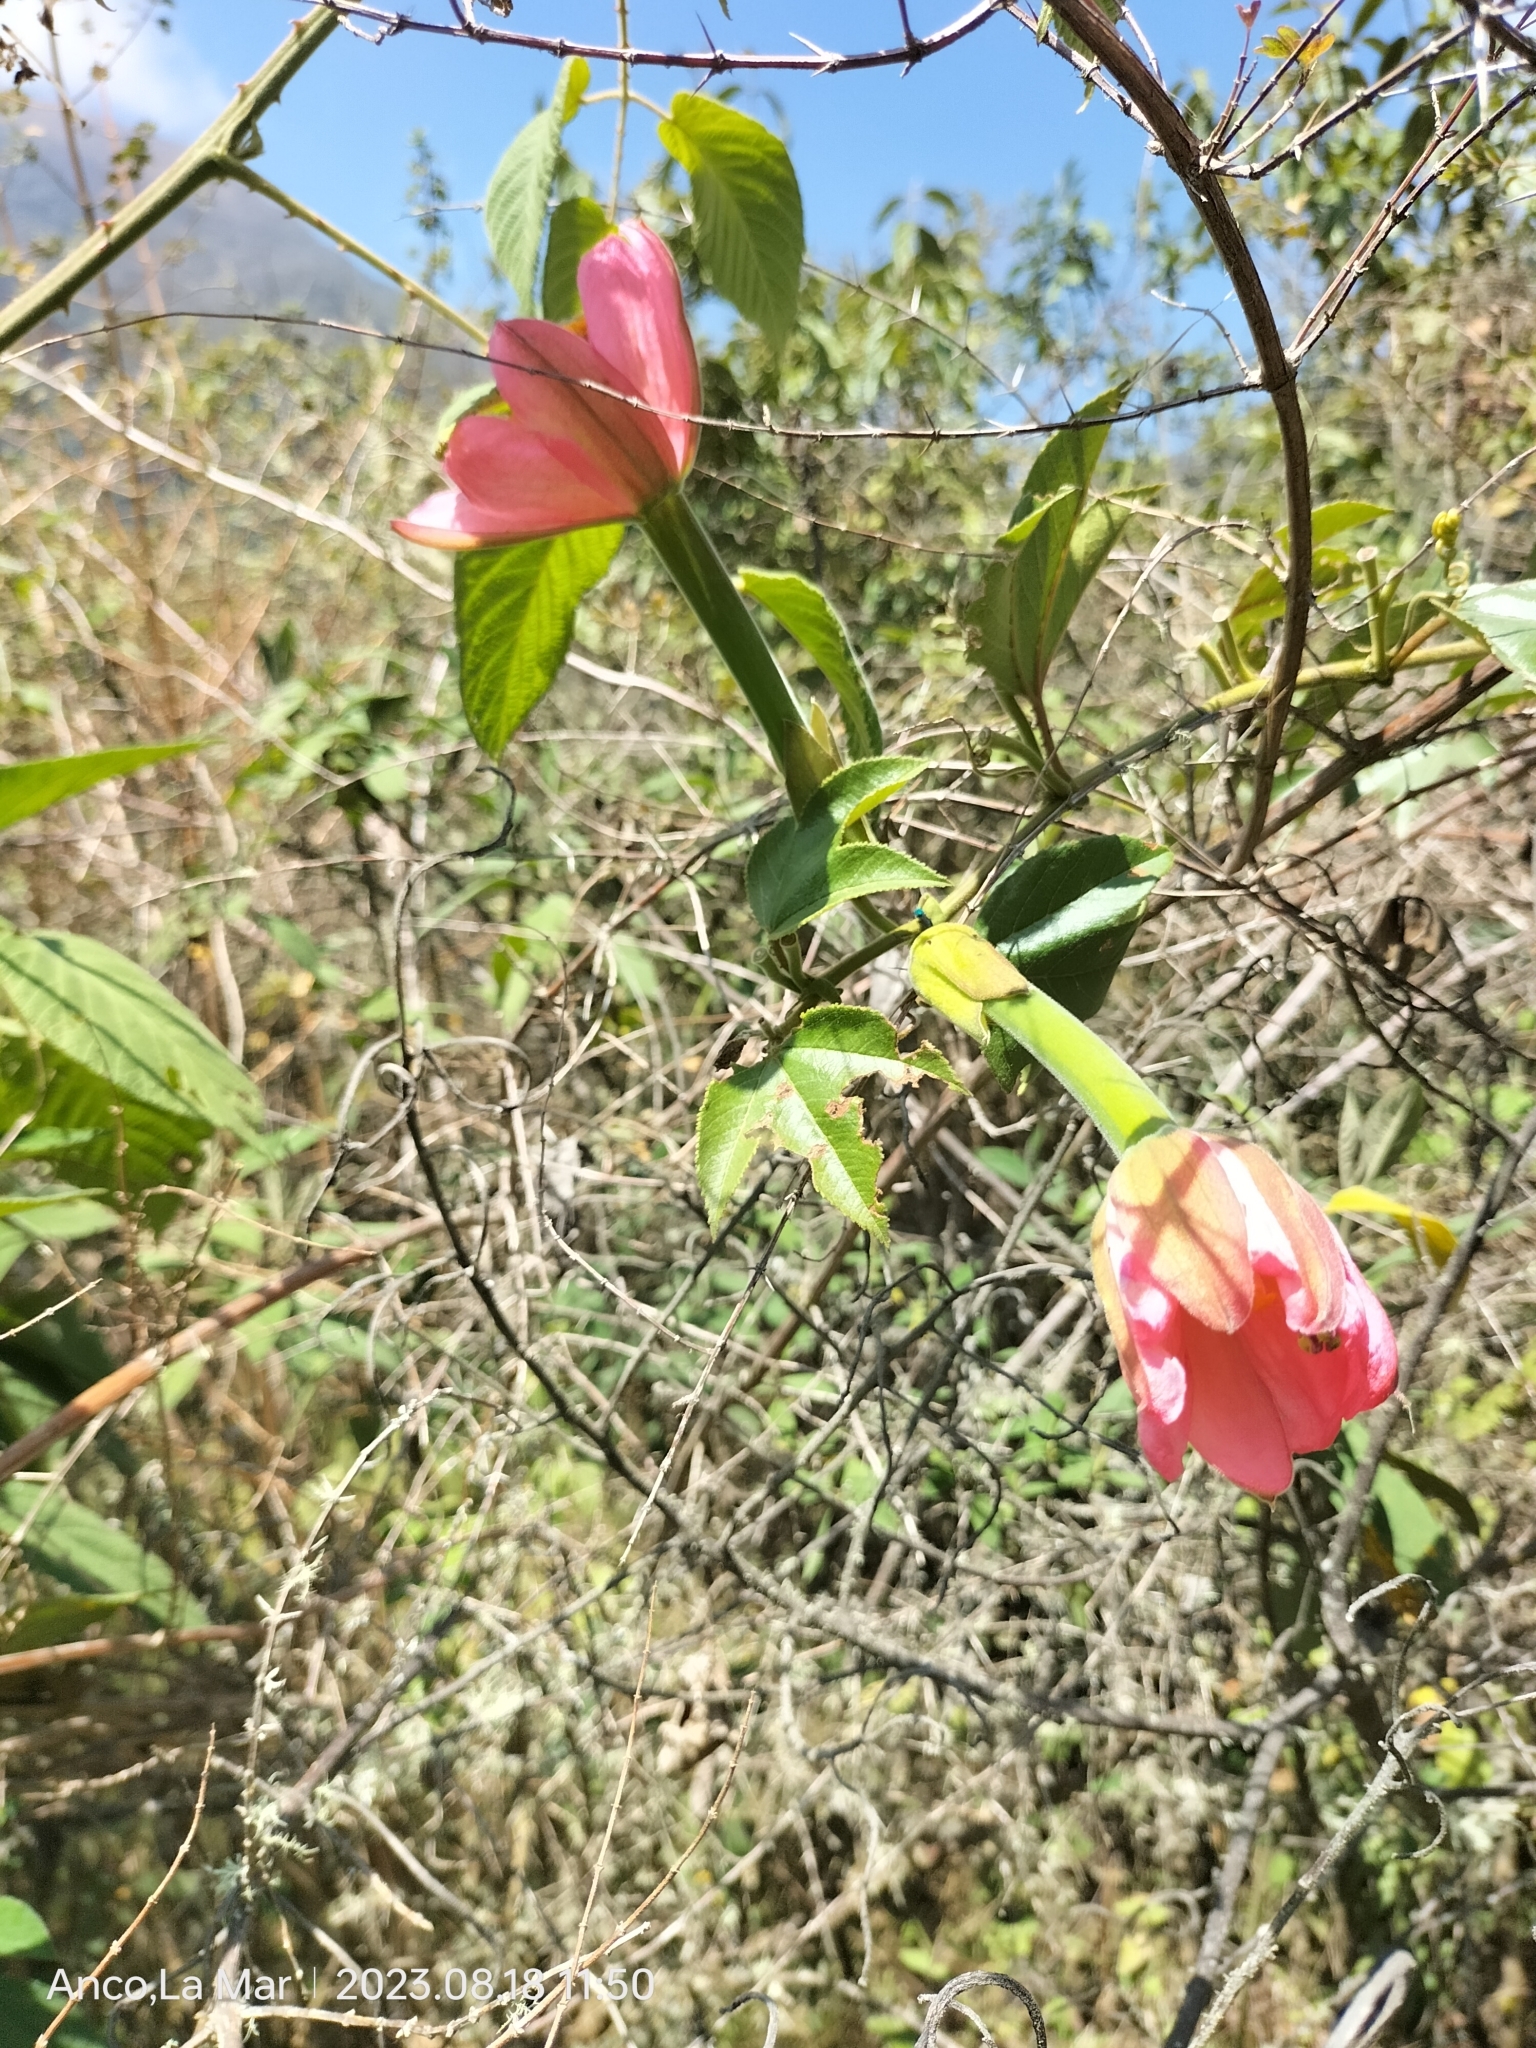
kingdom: Plantae
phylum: Tracheophyta
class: Magnoliopsida
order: Malpighiales
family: Passifloraceae
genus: Passiflora
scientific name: Passiflora mixta
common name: Passion flower
